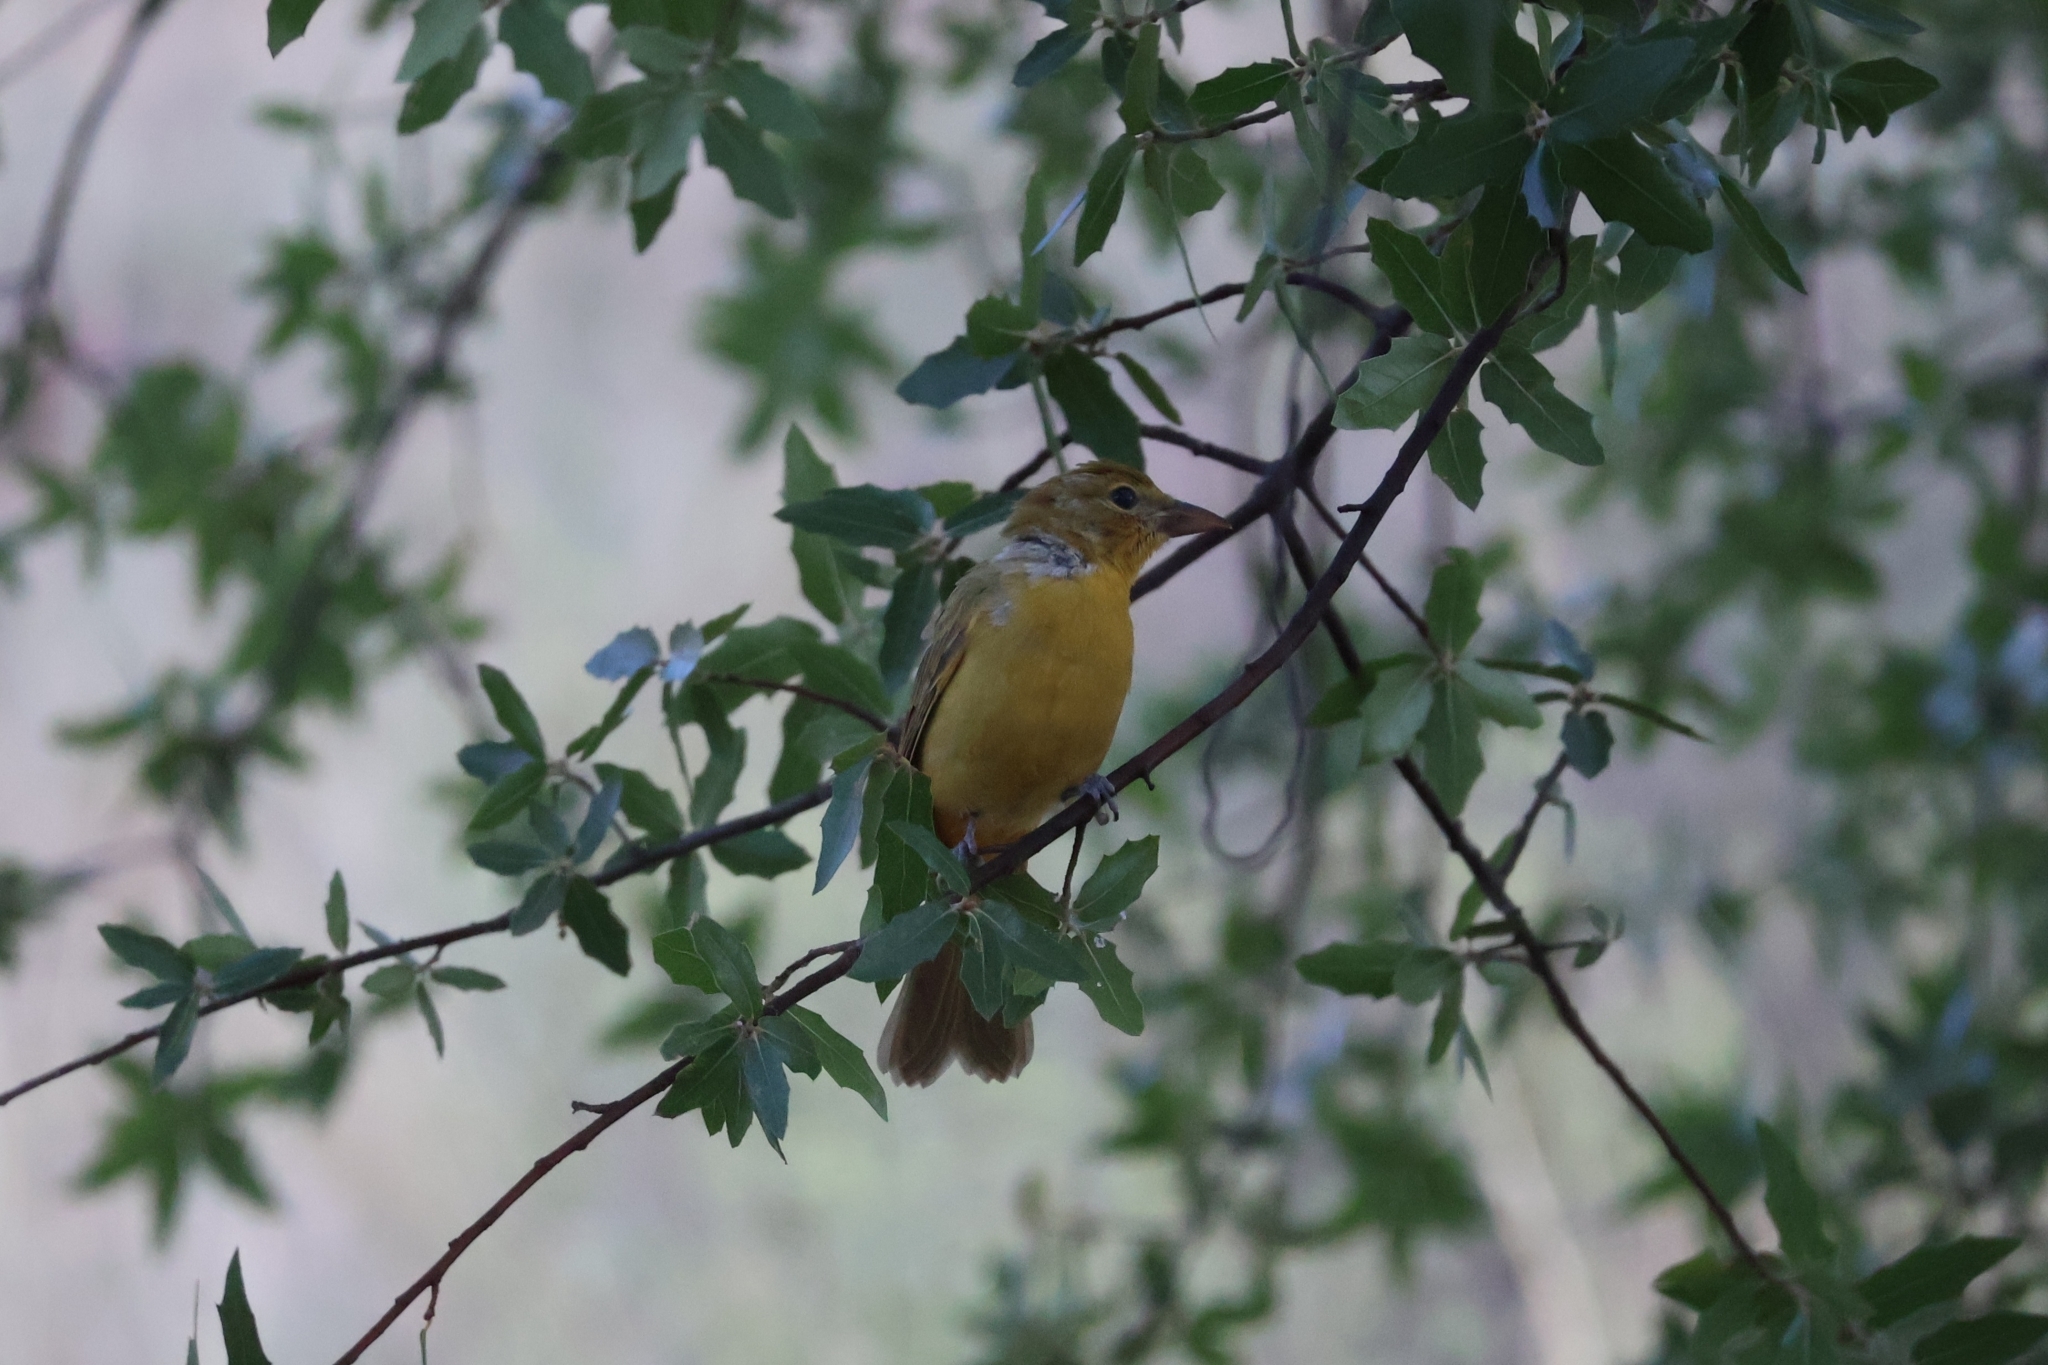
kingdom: Animalia
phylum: Chordata
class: Aves
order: Passeriformes
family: Cardinalidae
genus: Piranga
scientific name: Piranga rubra
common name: Summer tanager
